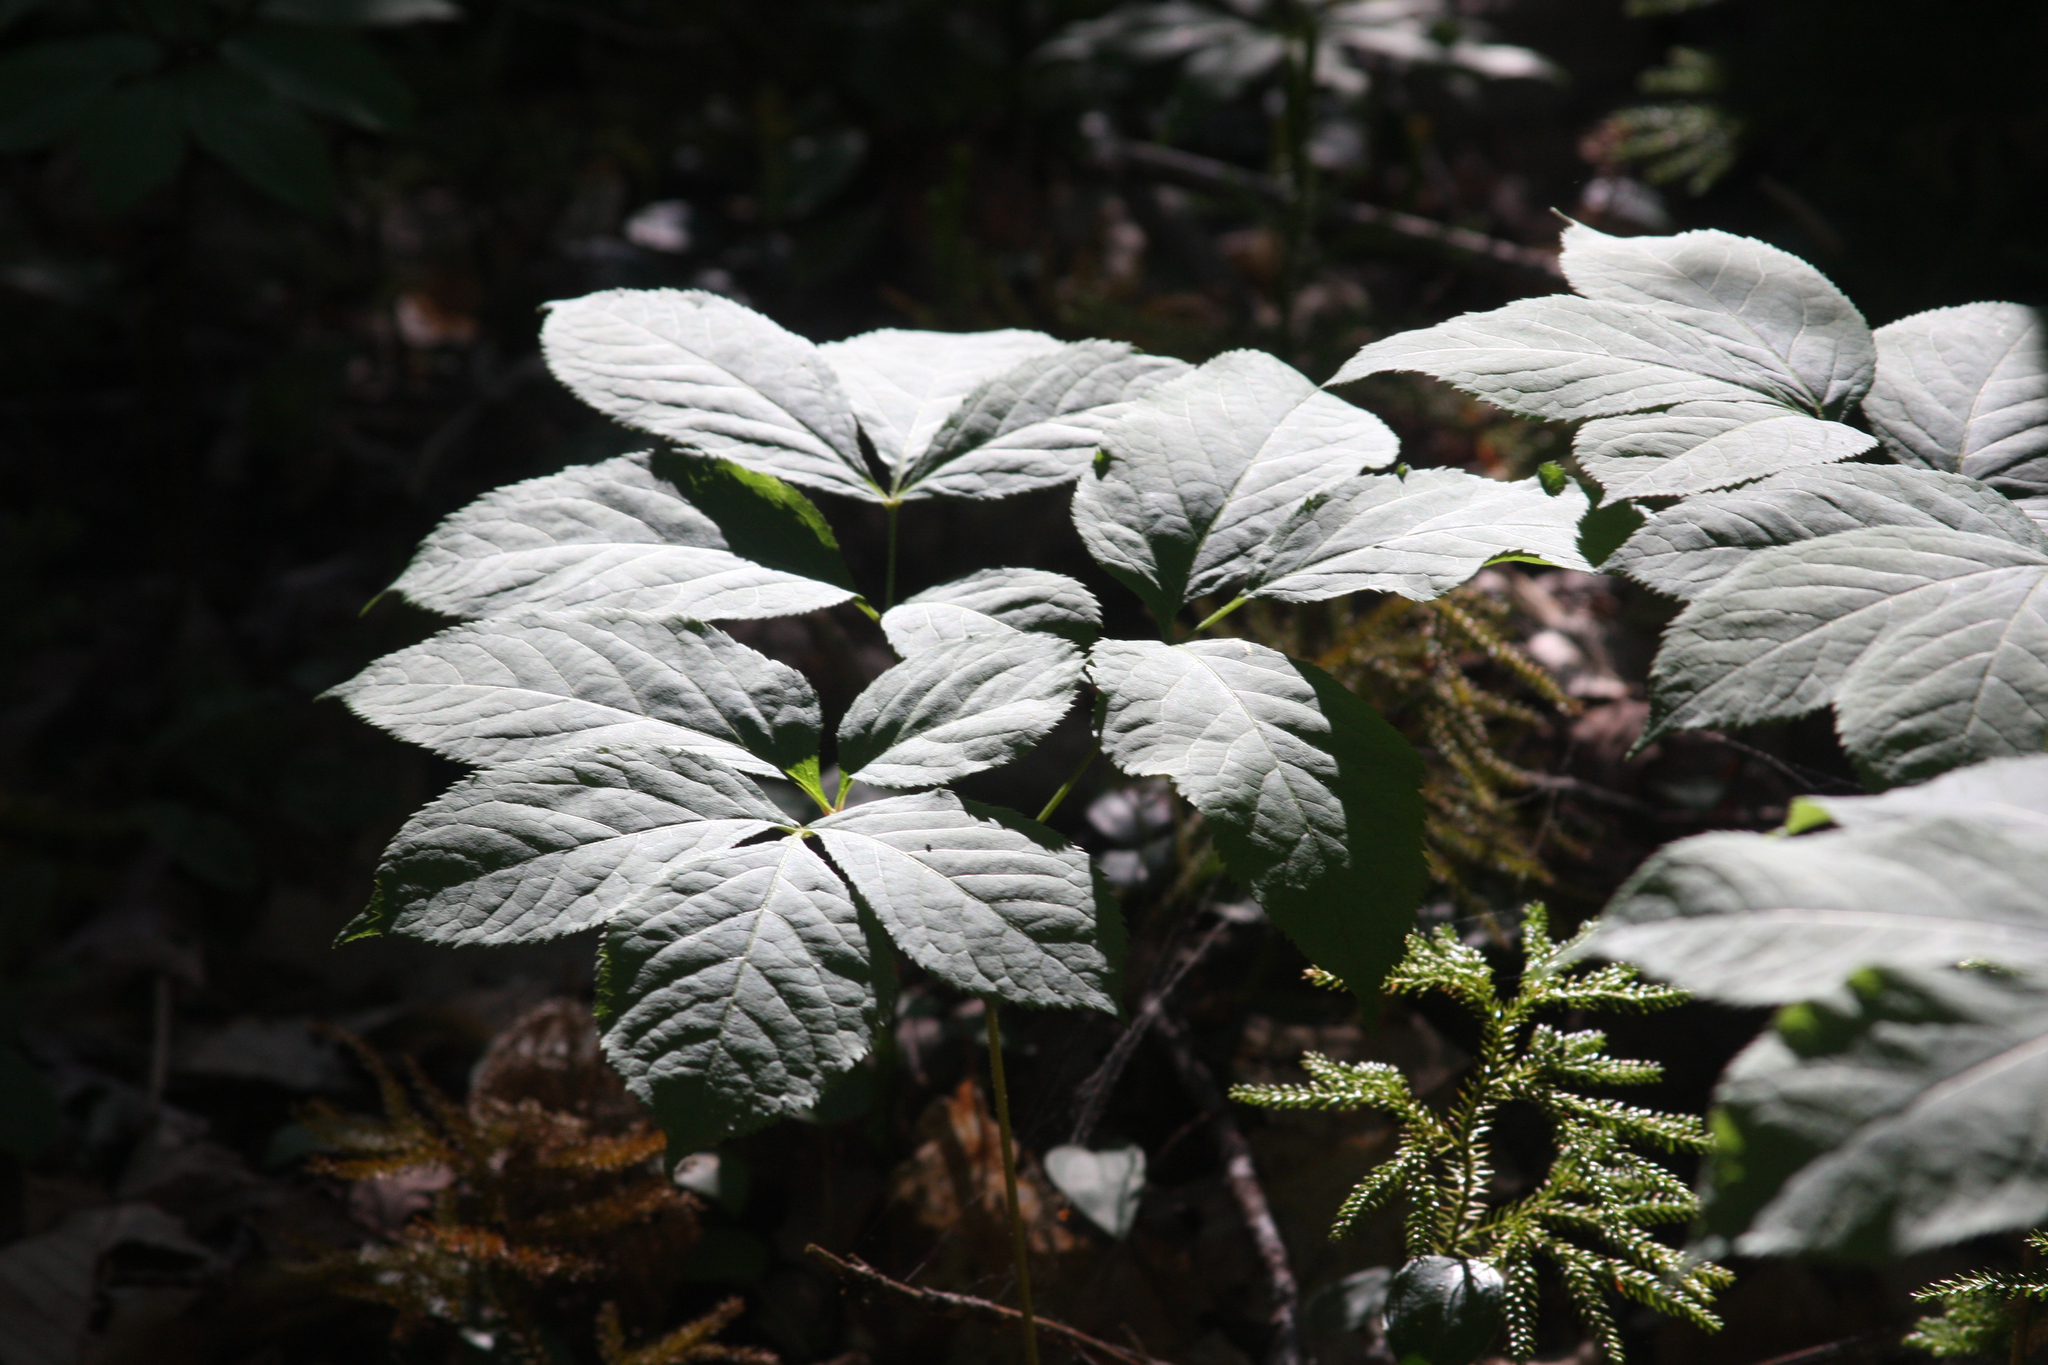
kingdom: Plantae
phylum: Tracheophyta
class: Magnoliopsida
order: Apiales
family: Araliaceae
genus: Aralia
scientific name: Aralia nudicaulis
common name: Wild sarsaparilla
